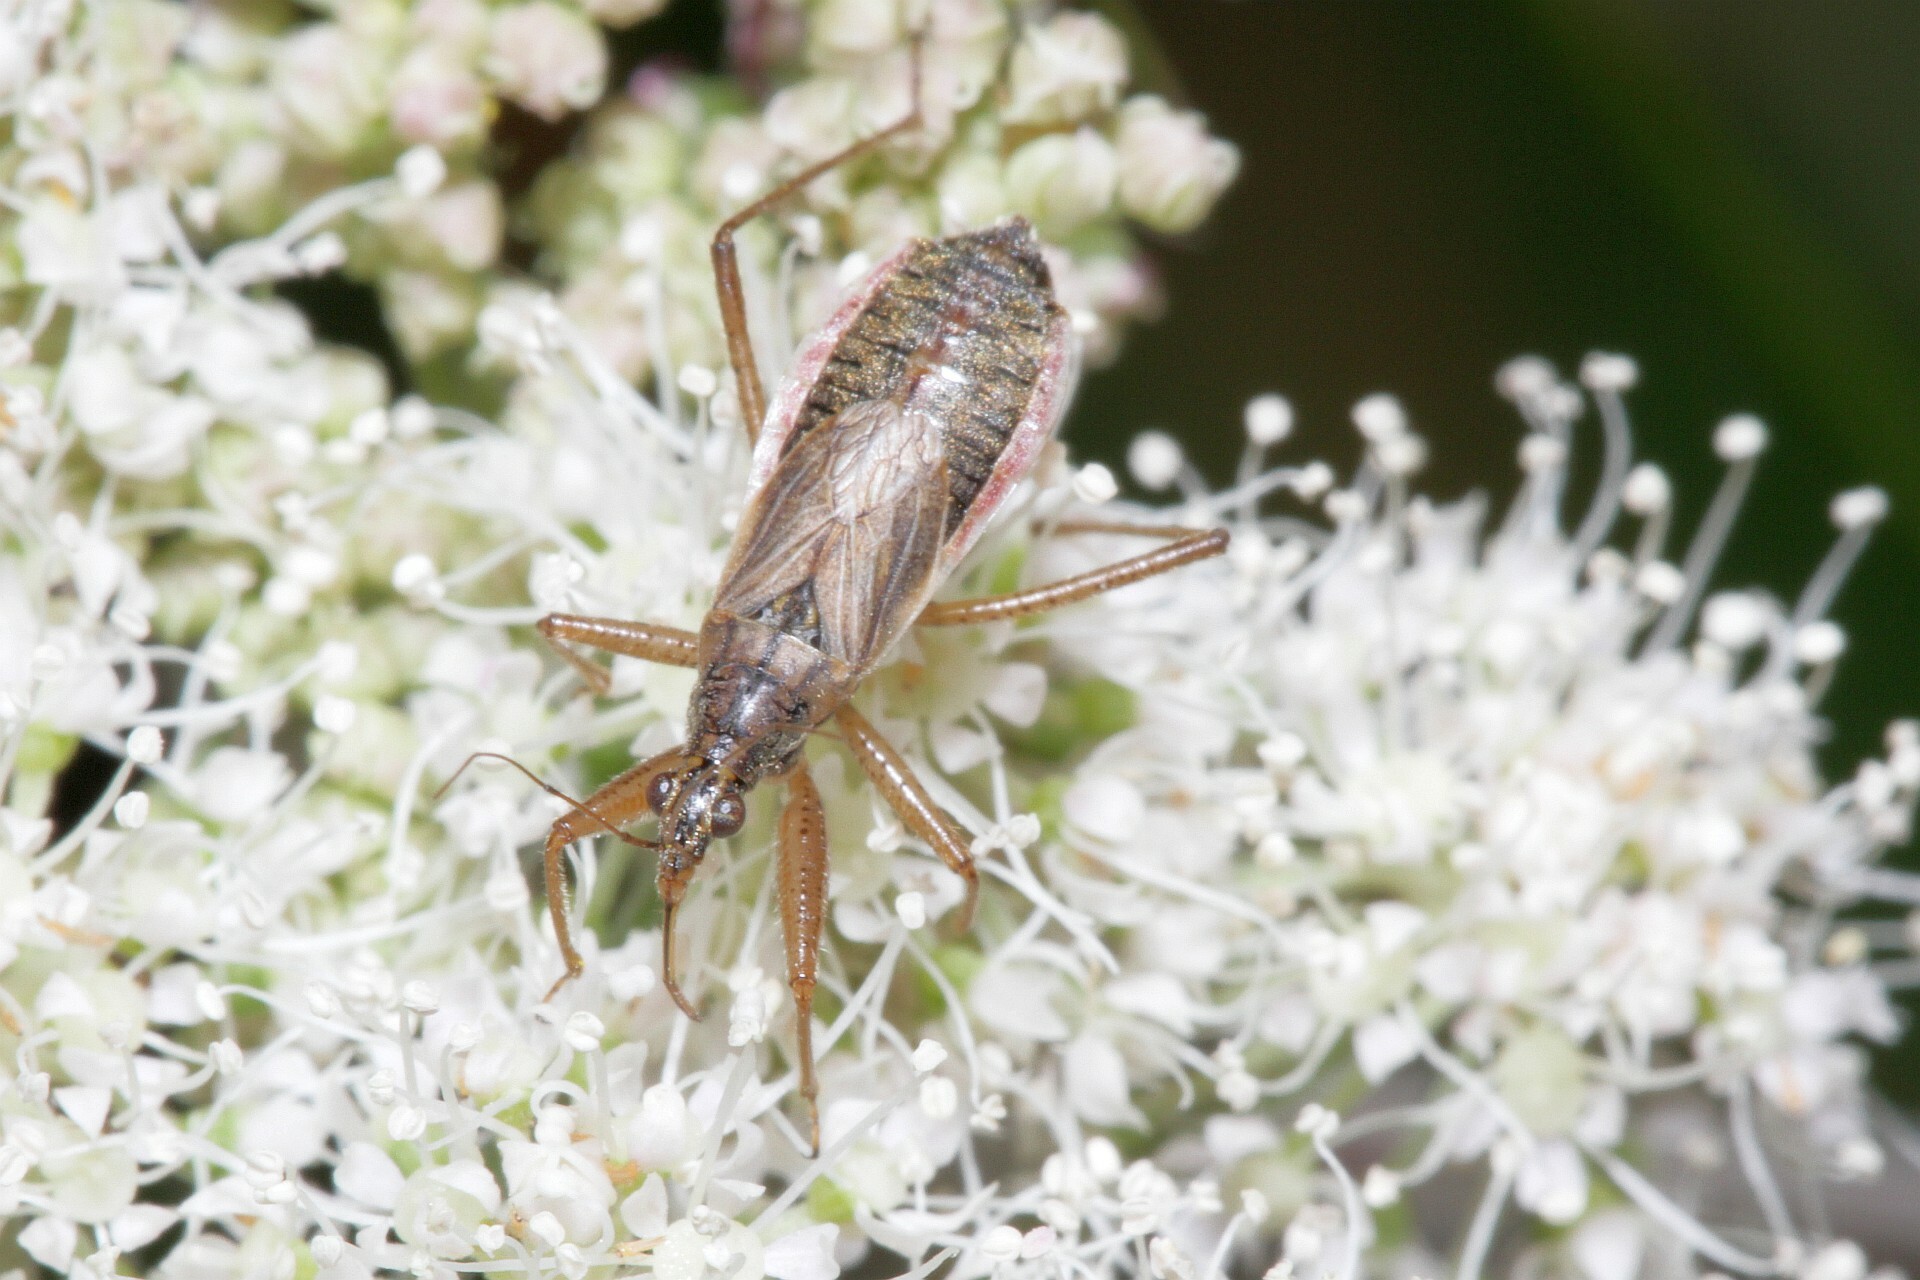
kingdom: Animalia
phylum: Arthropoda
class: Insecta
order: Hemiptera
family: Nabidae
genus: Nabis
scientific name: Nabis flavomarginatus
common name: Broad damselbug
